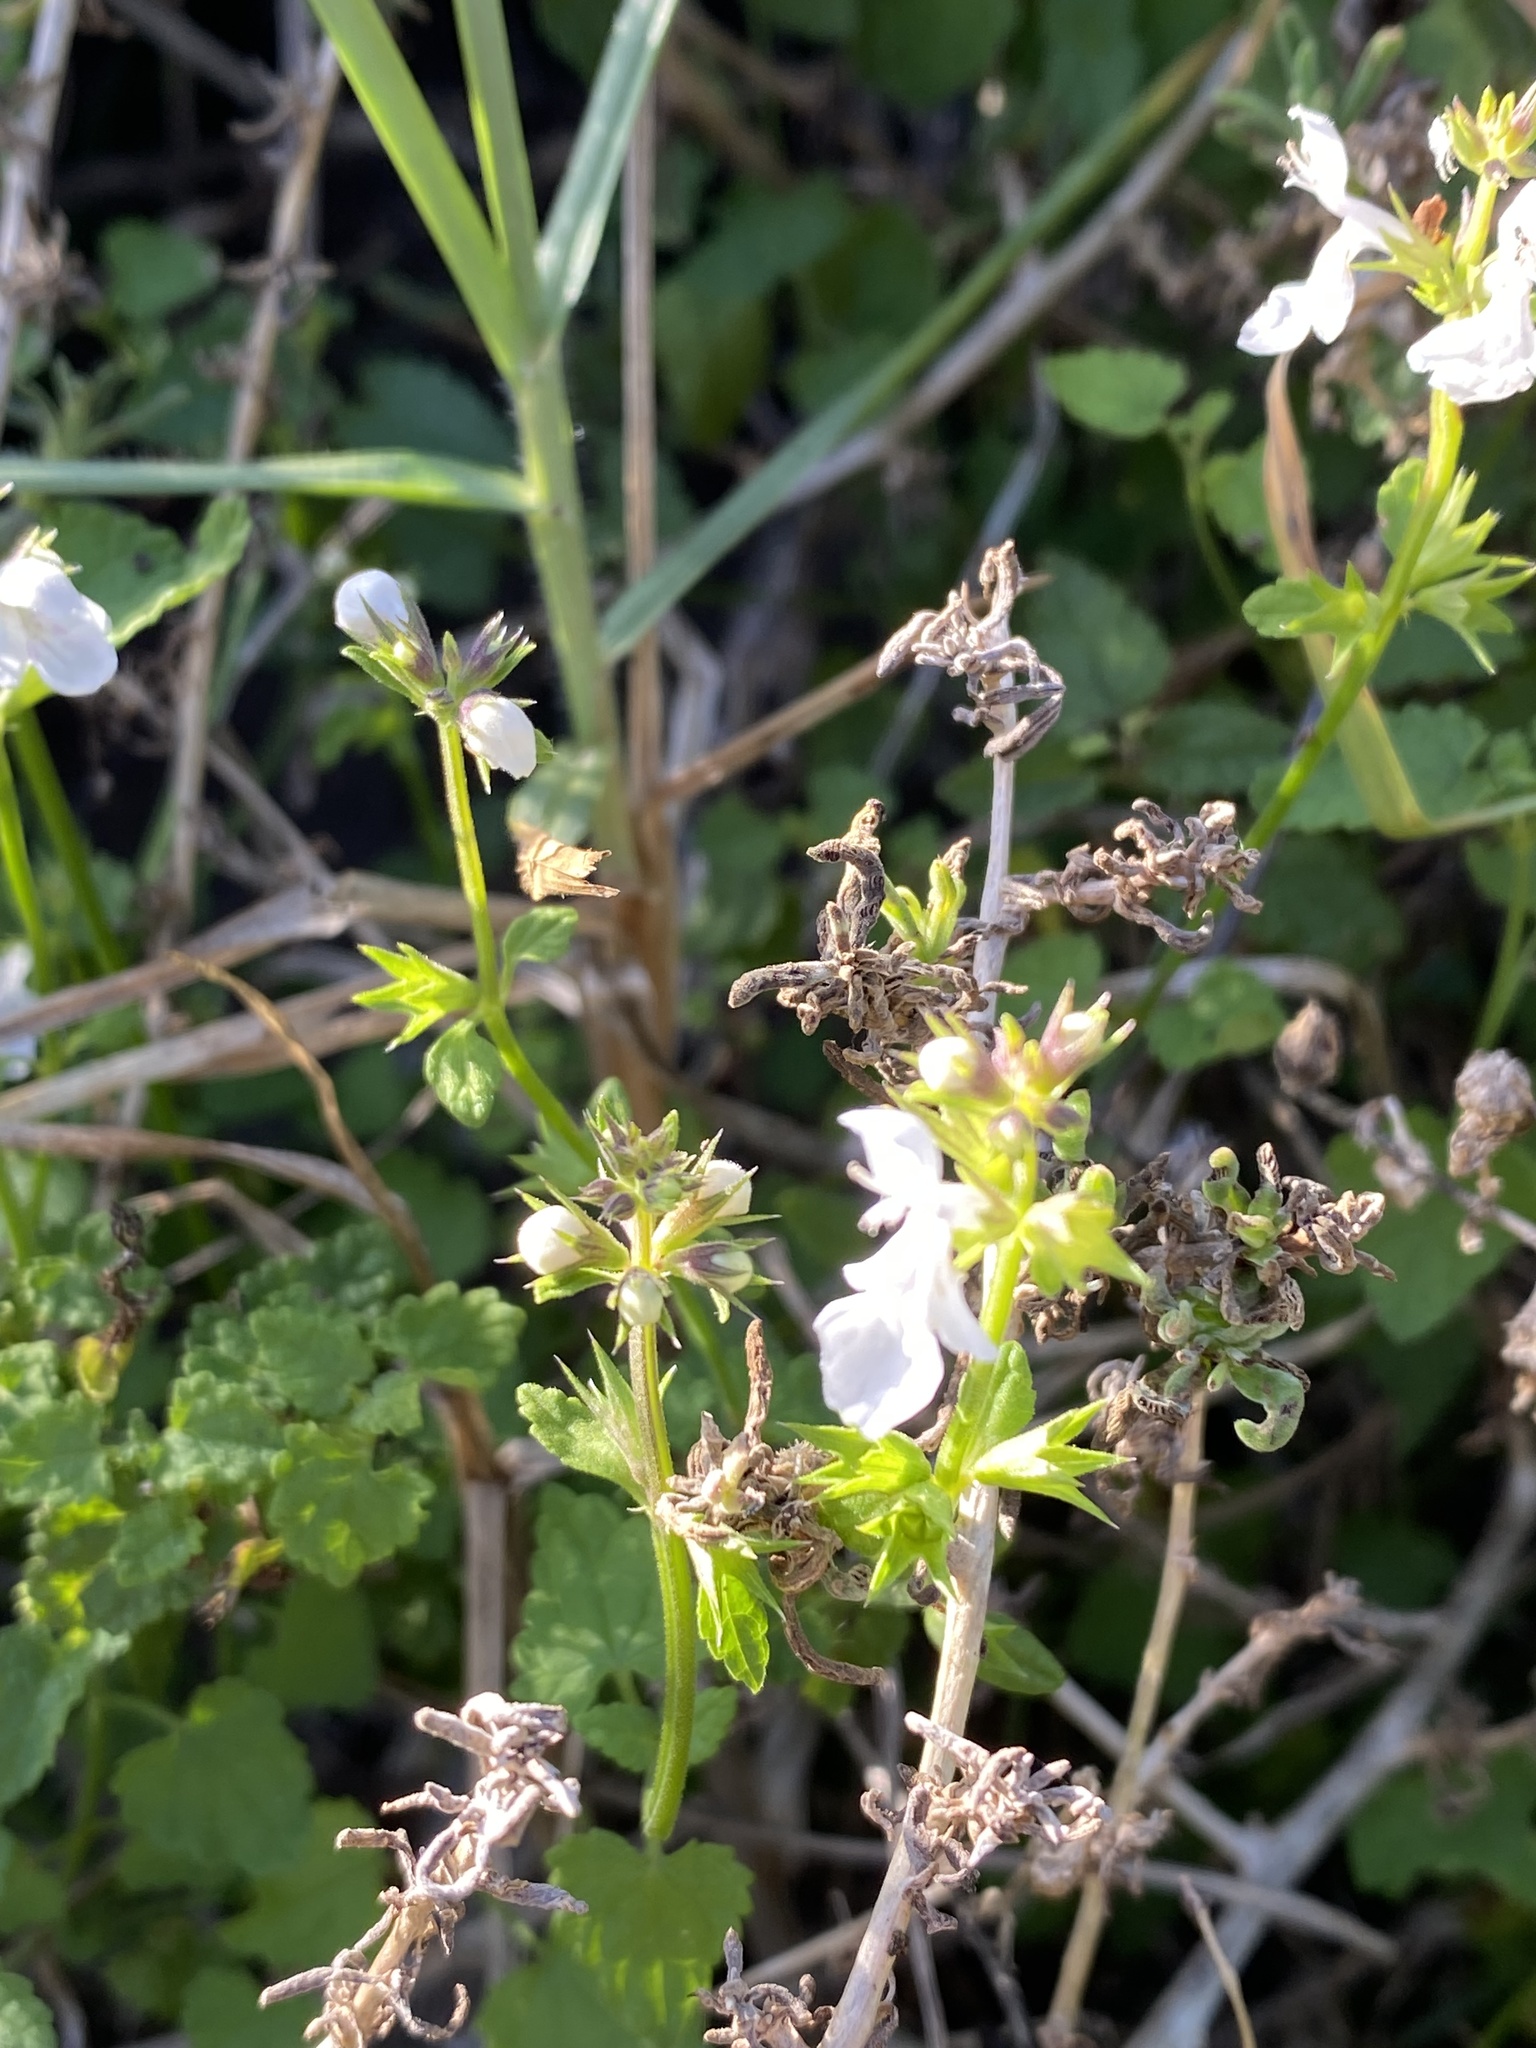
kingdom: Plantae
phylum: Tracheophyta
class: Magnoliopsida
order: Lamiales
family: Lamiaceae
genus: Stachys
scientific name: Stachys aethiopica
